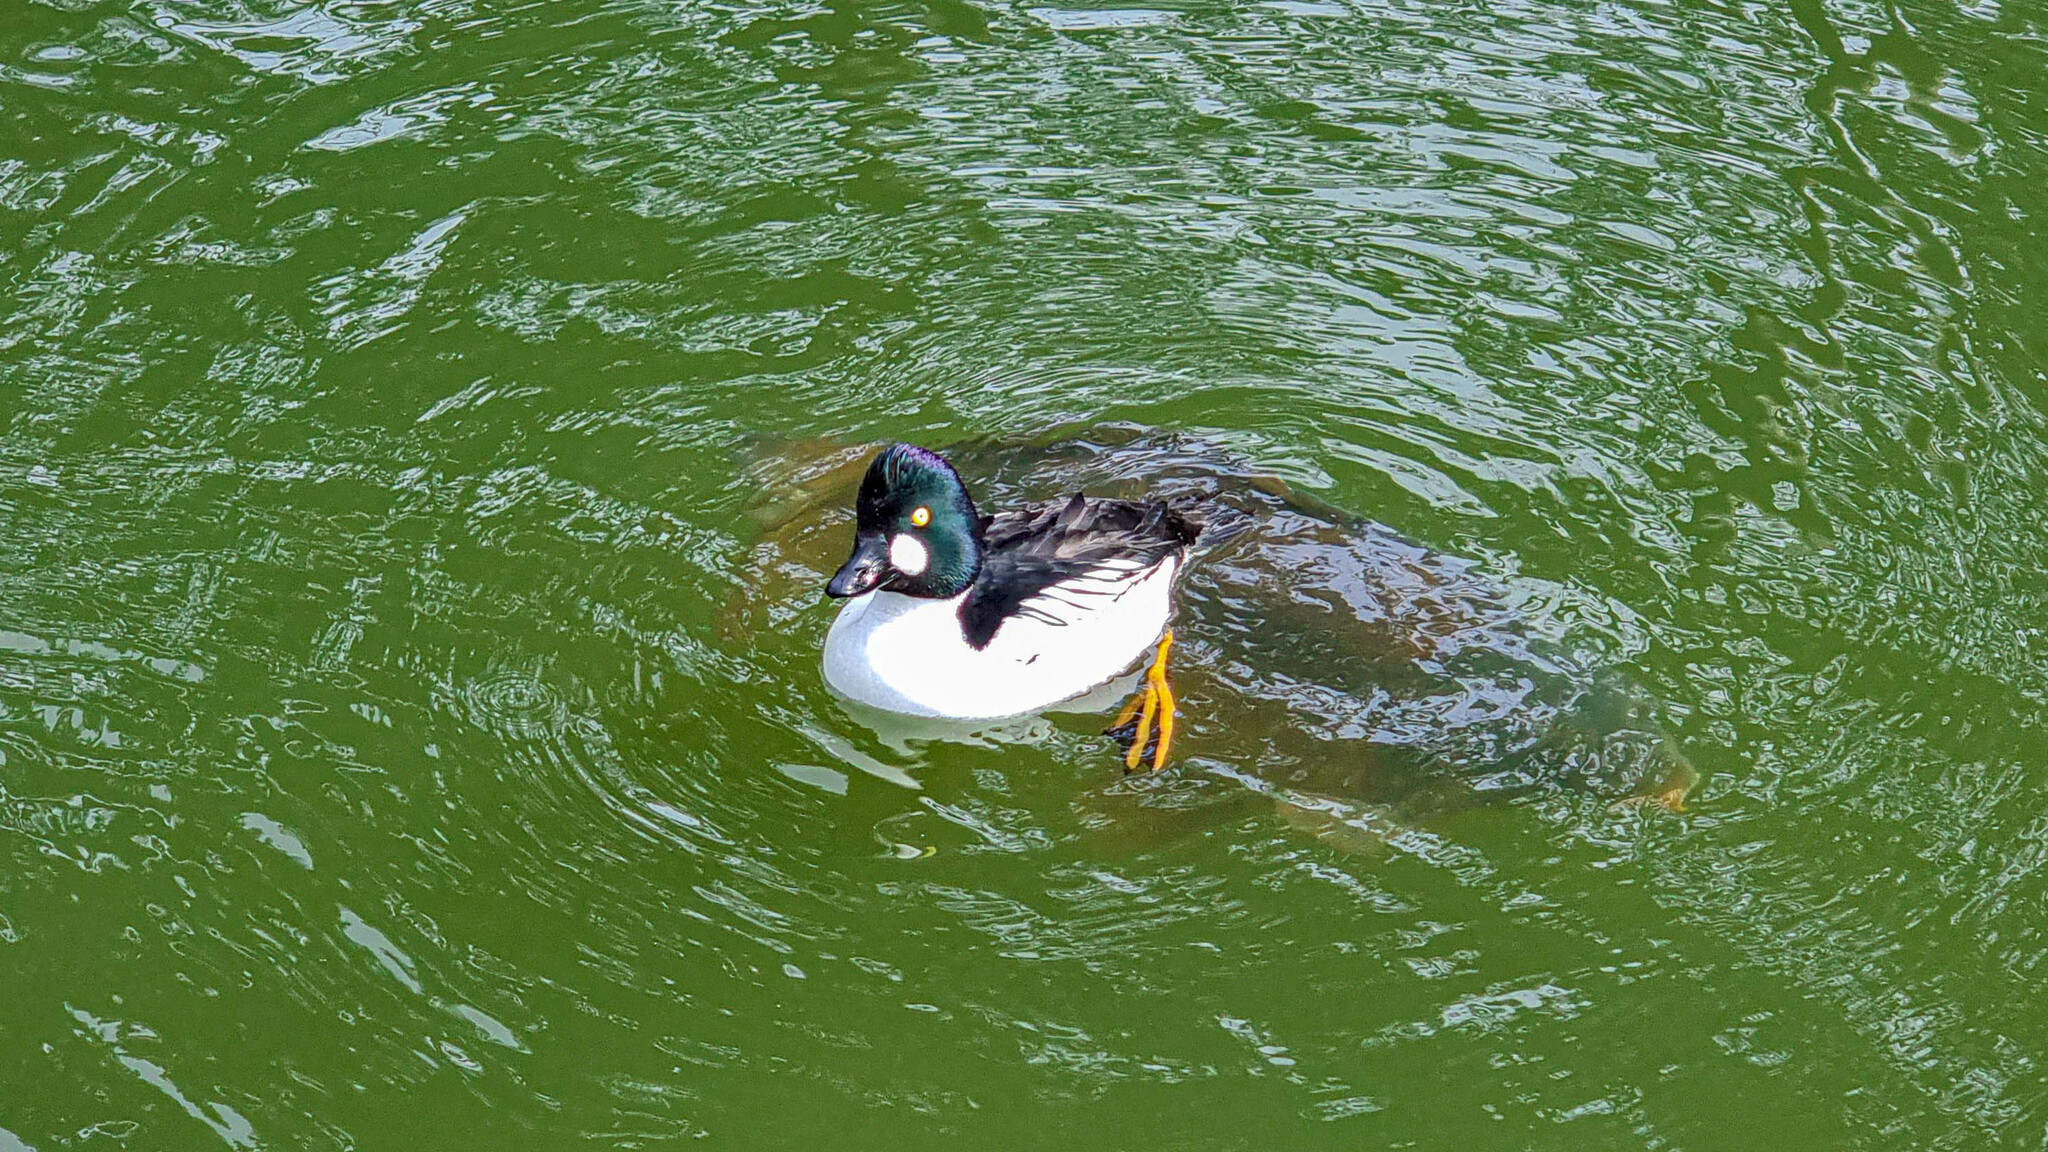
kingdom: Animalia
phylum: Chordata
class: Aves
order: Anseriformes
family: Anatidae
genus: Bucephala
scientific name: Bucephala clangula
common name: Common goldeneye
